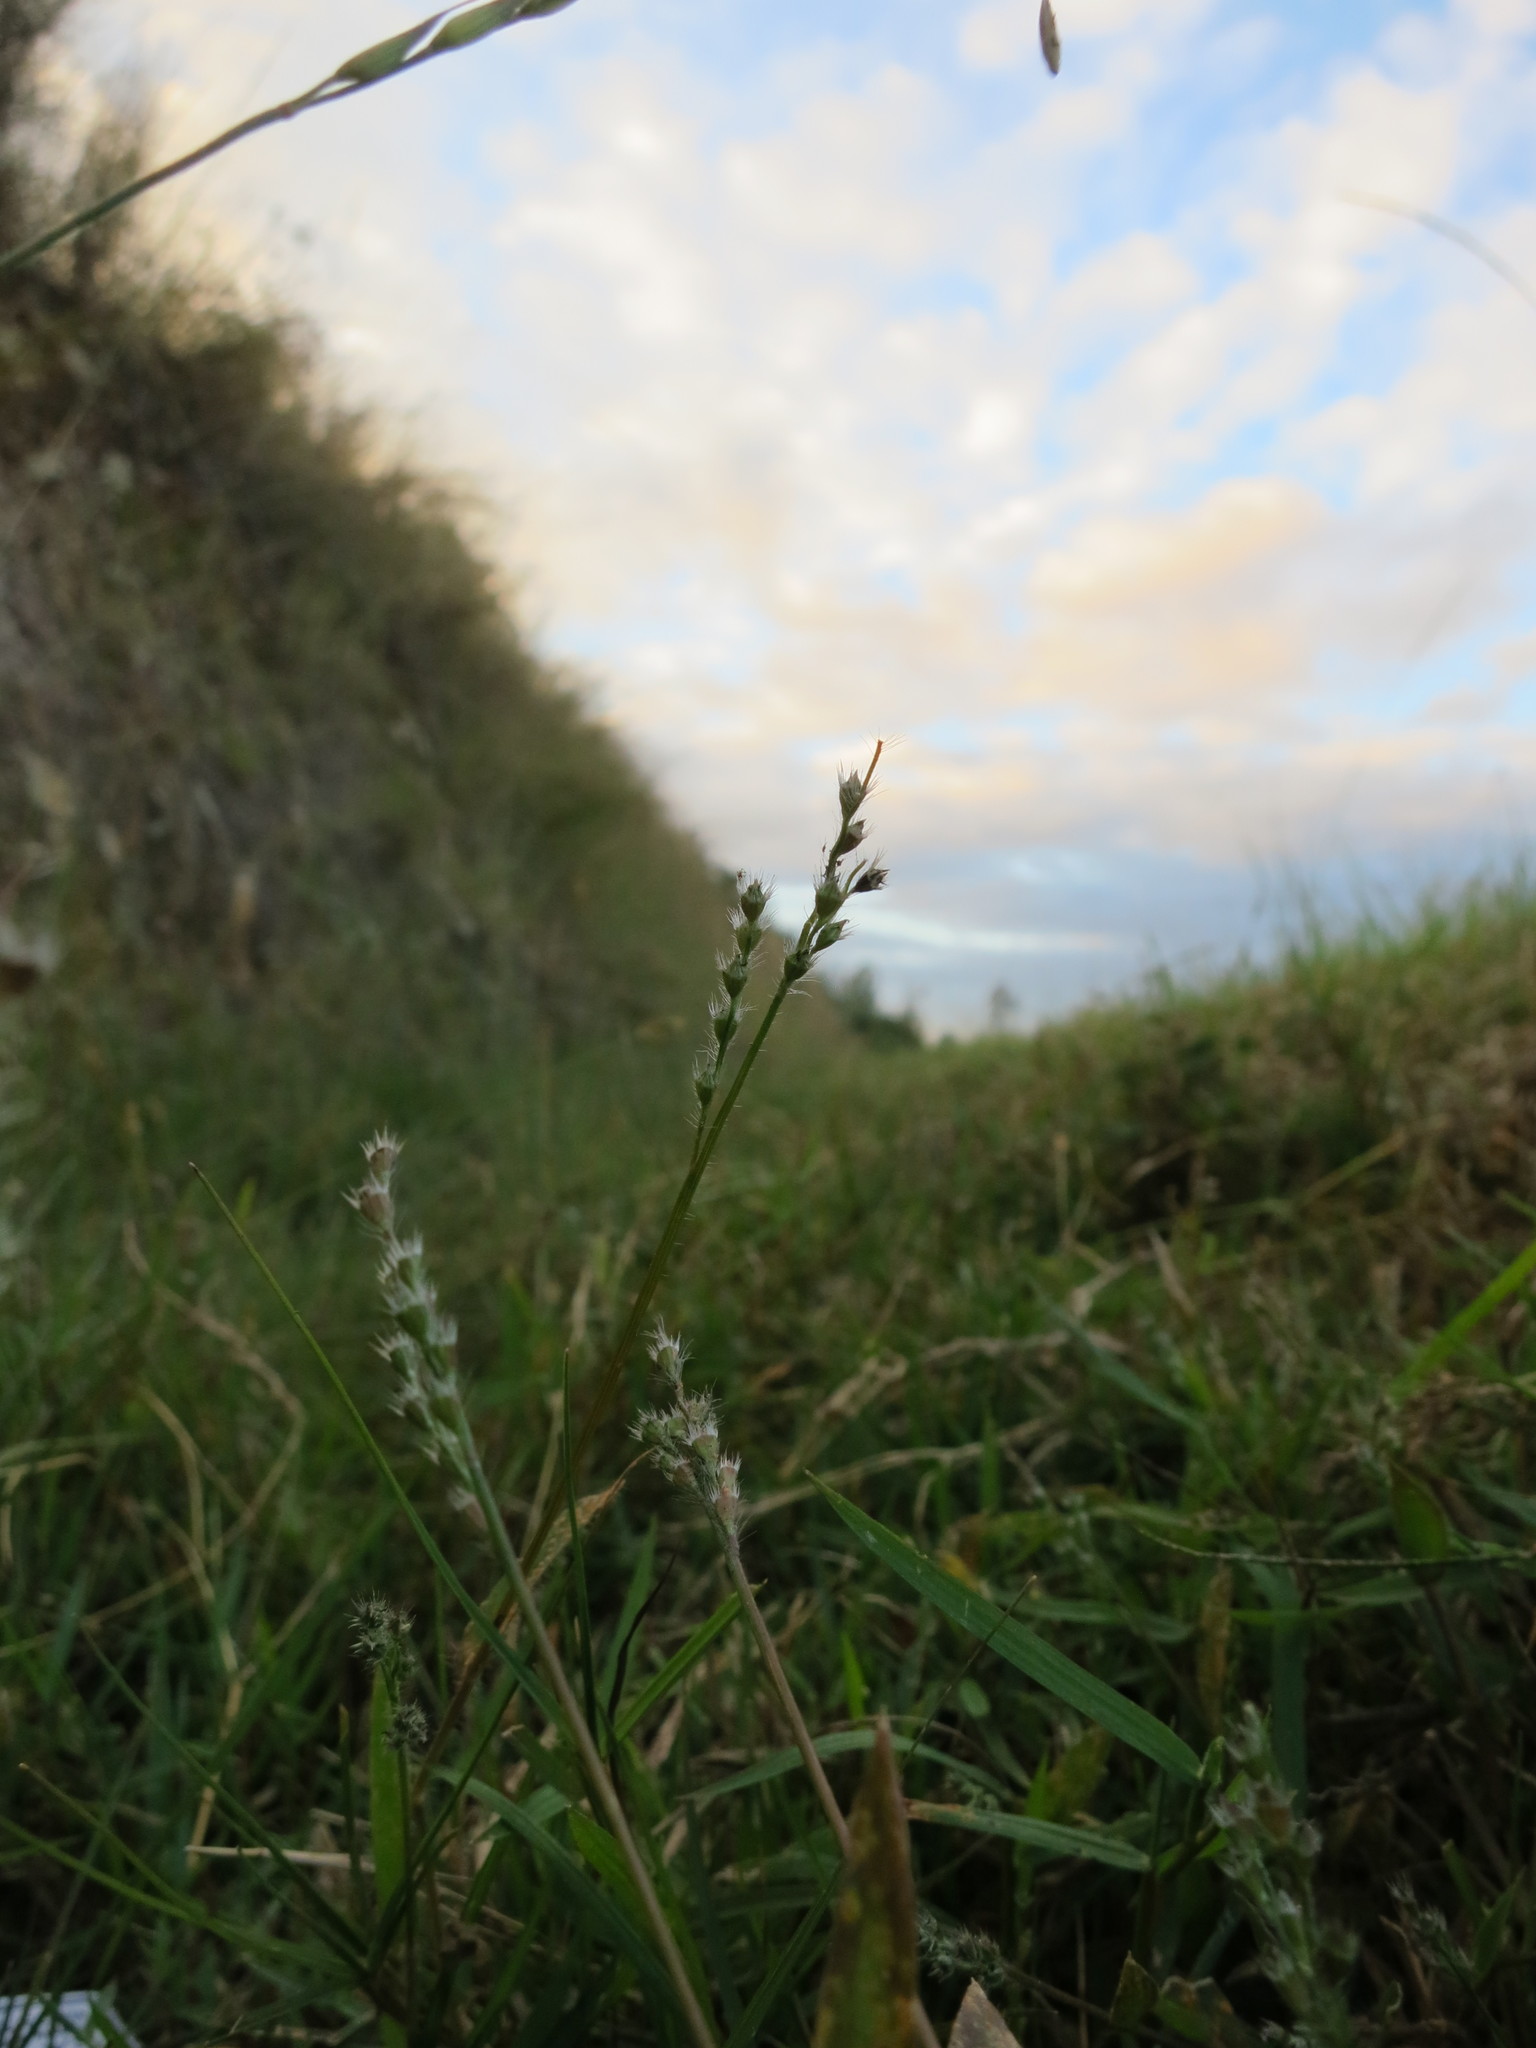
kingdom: Plantae
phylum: Tracheophyta
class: Liliopsida
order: Poales
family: Poaceae
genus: Urochloa
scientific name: Urochloa Brachiaria subrostrata
